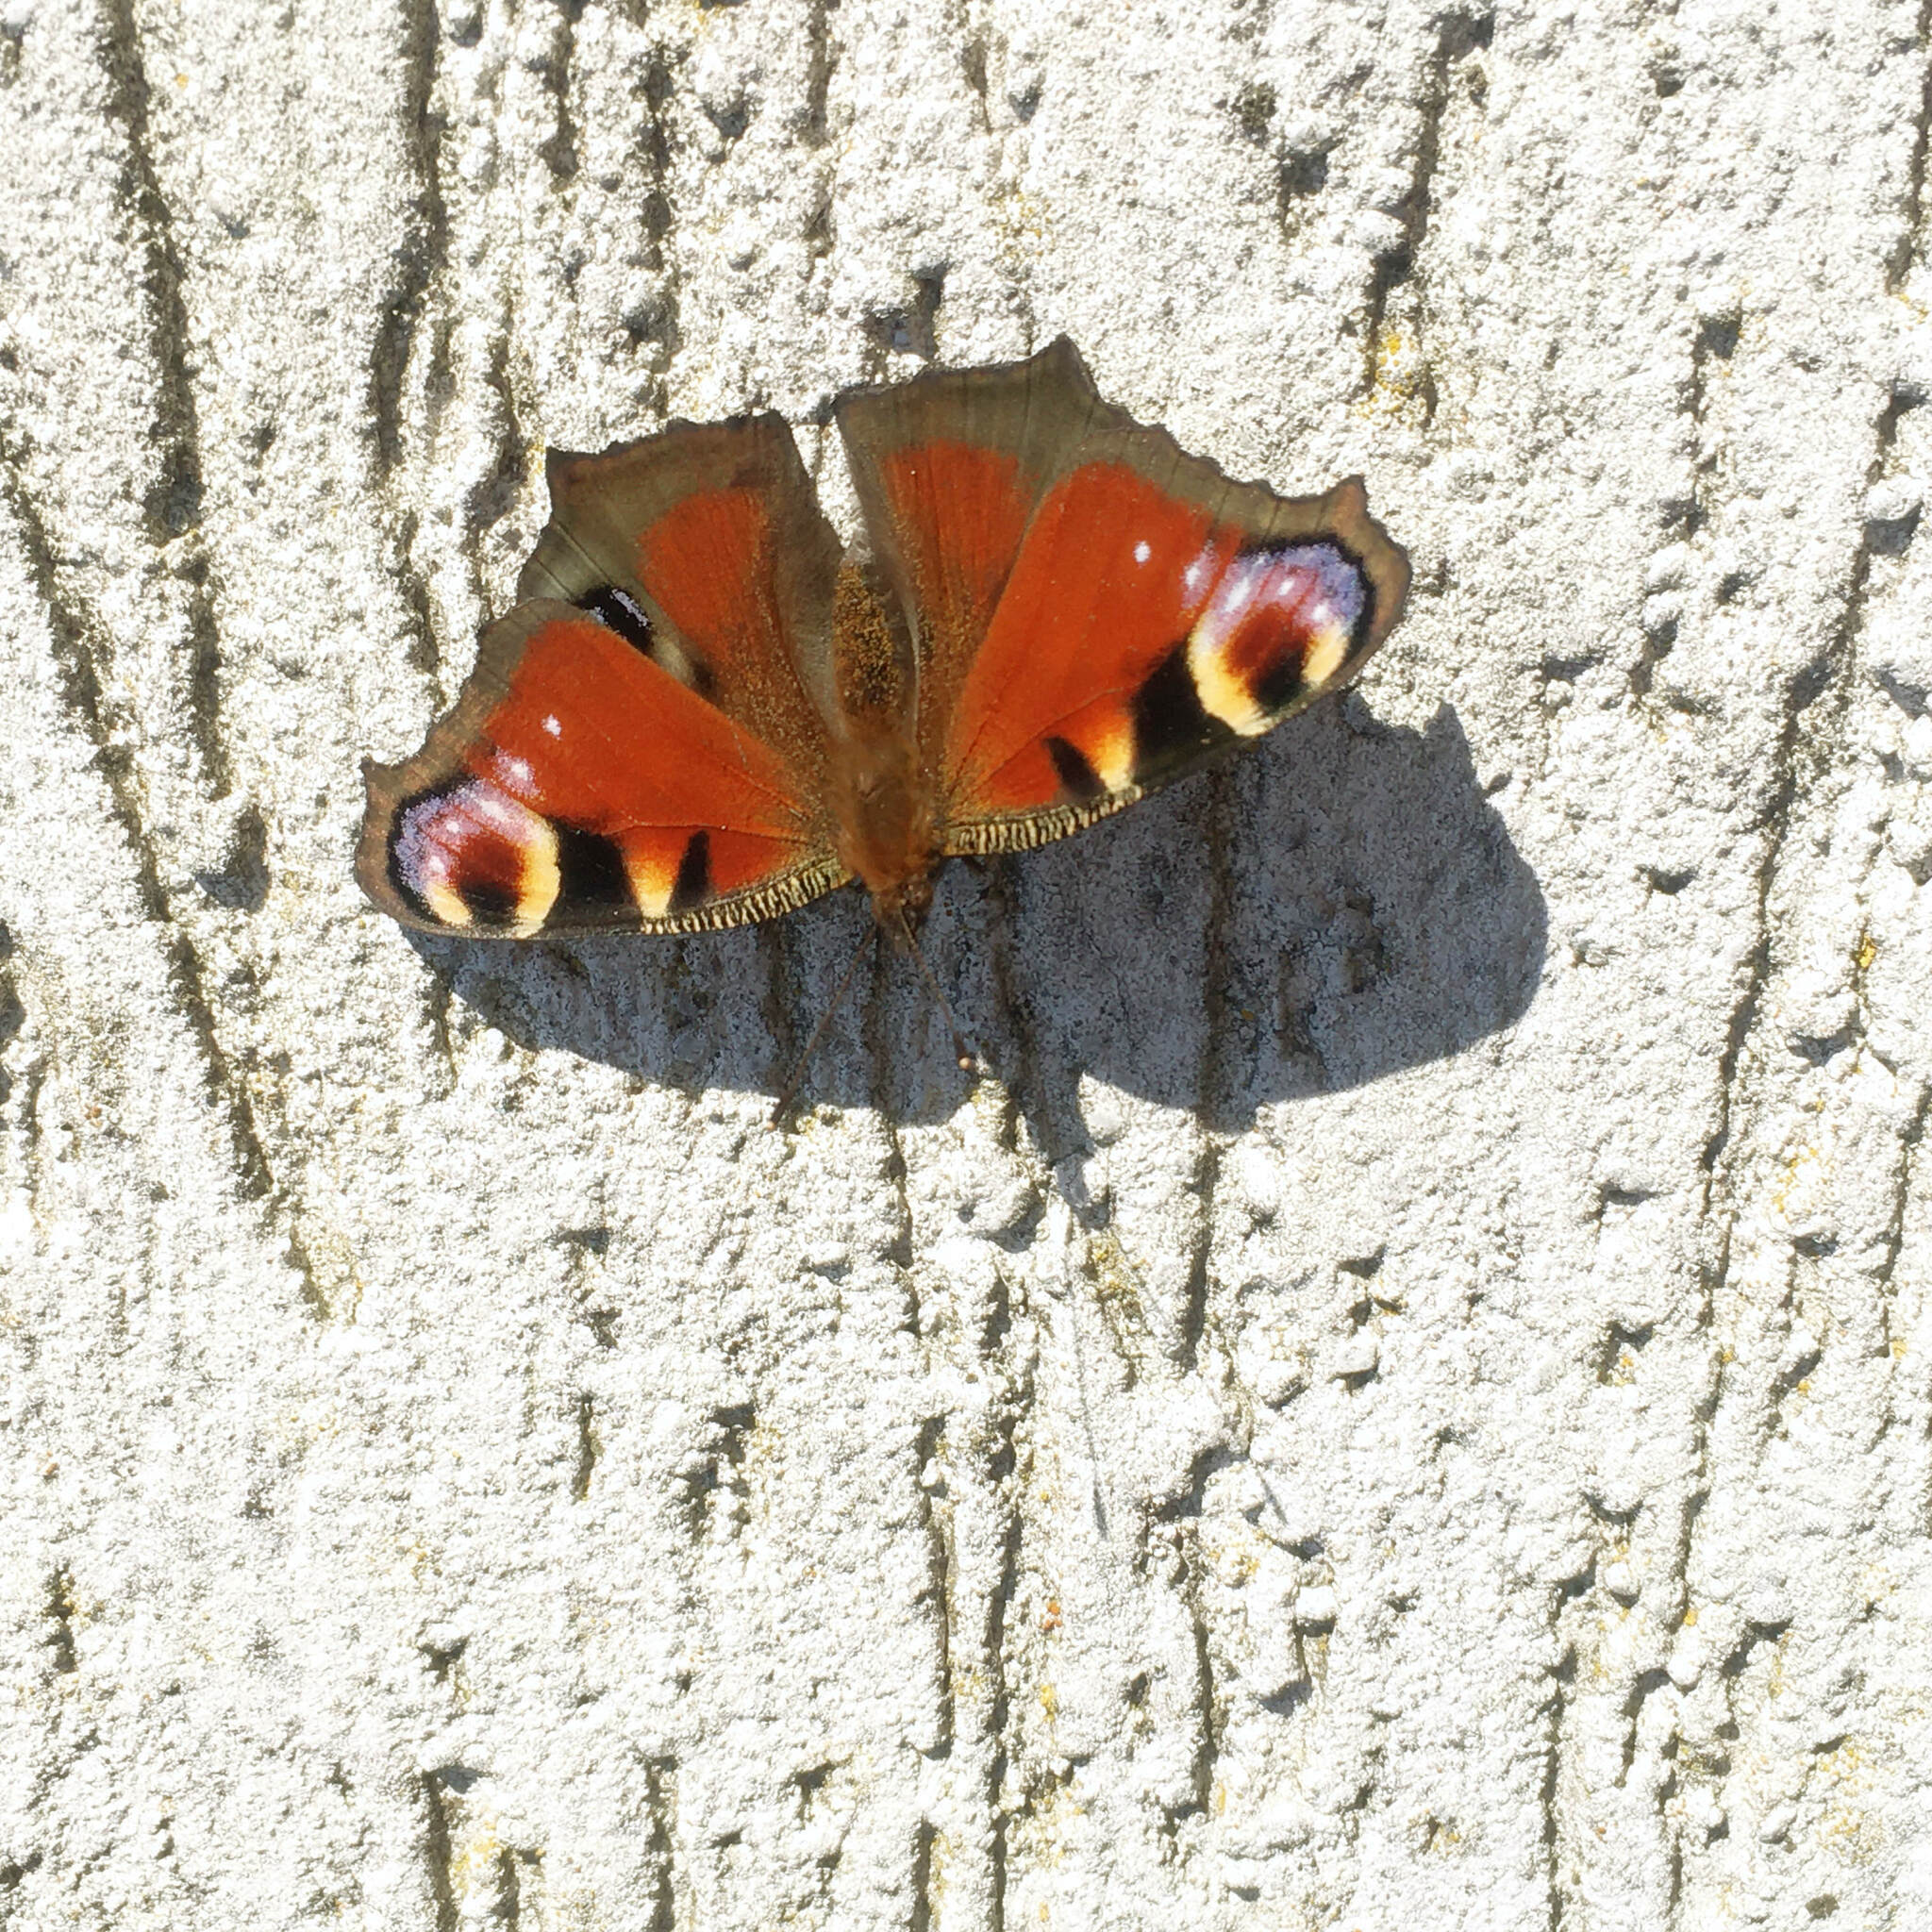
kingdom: Animalia
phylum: Arthropoda
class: Insecta
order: Lepidoptera
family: Nymphalidae
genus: Aglais
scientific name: Aglais io
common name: Peacock
